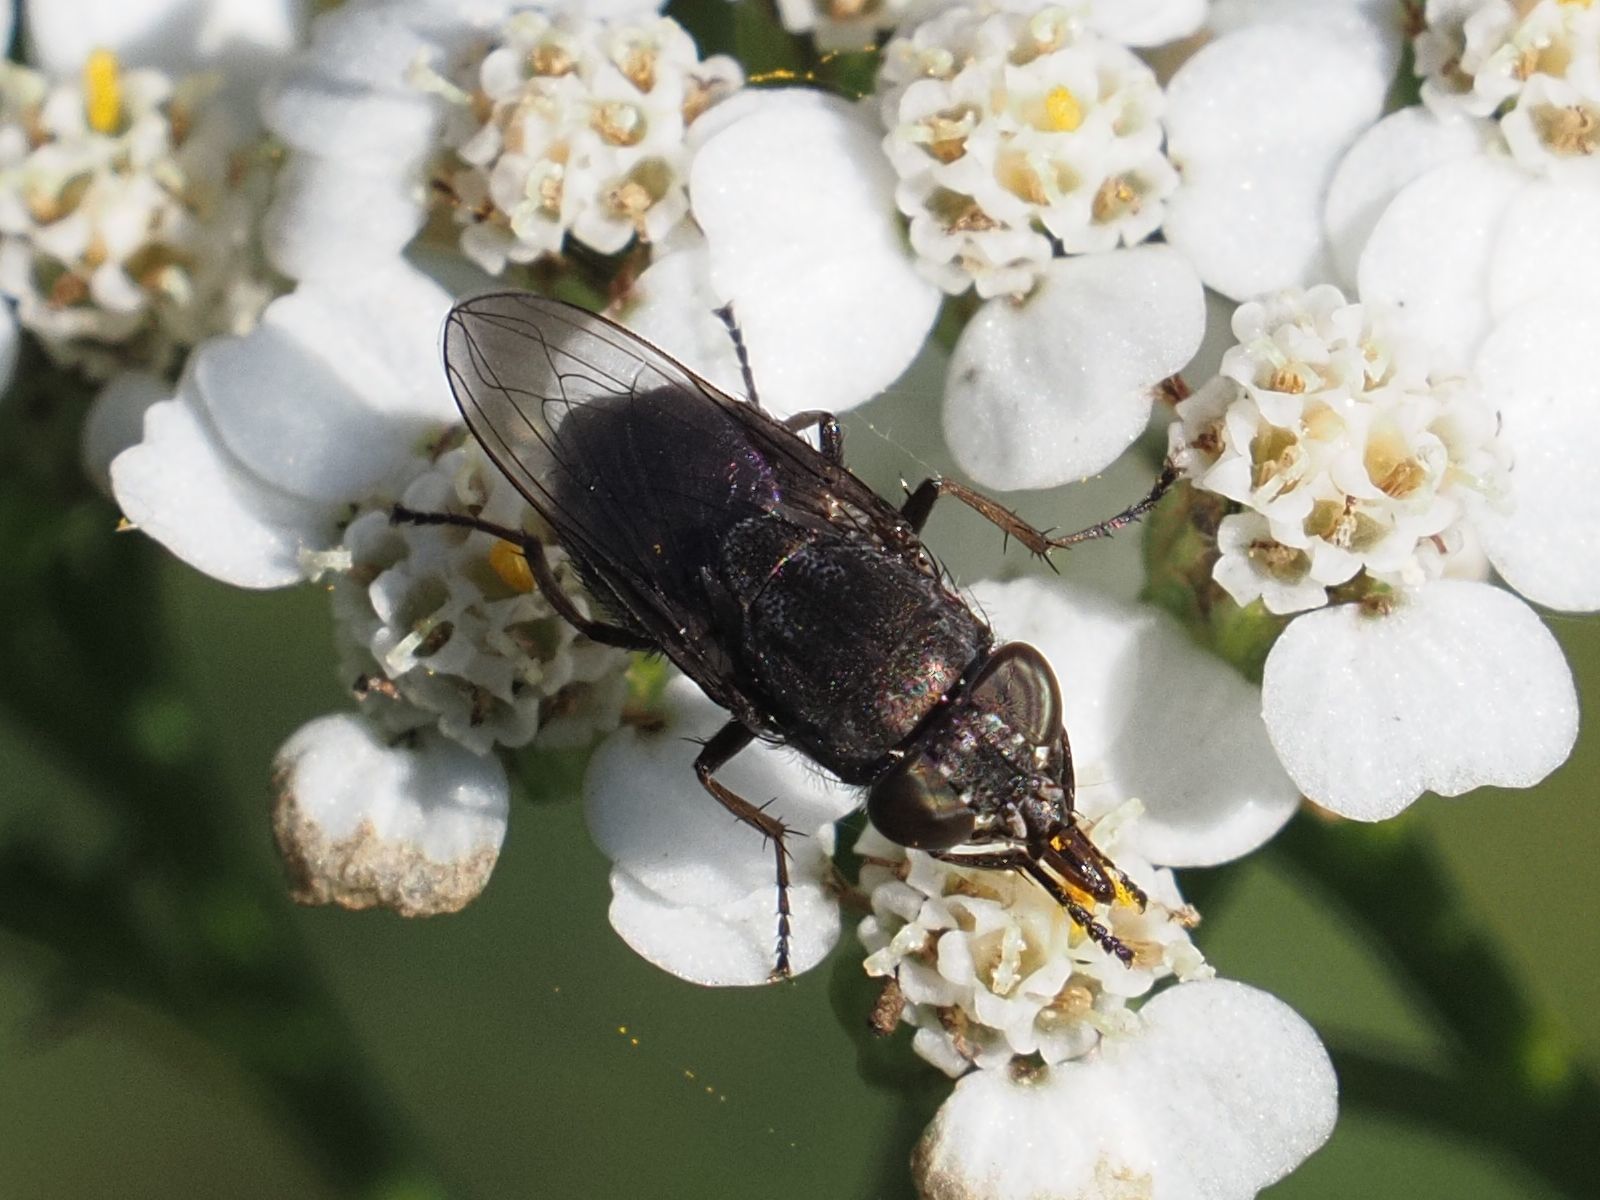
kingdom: Animalia
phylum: Arthropoda
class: Insecta
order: Diptera
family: Calliphoridae
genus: Stomorhina
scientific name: Stomorhina lunata
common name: Locust blowfly
